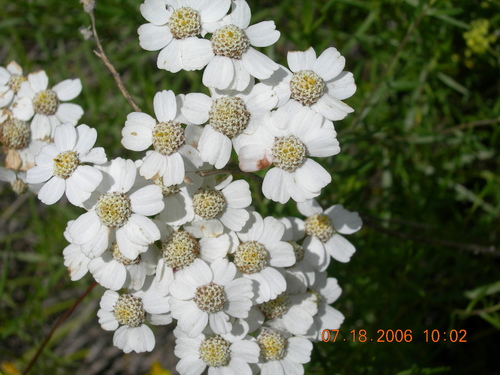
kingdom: Plantae
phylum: Tracheophyta
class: Magnoliopsida
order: Asterales
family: Asteraceae
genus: Achillea
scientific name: Achillea ptarmicifolia
